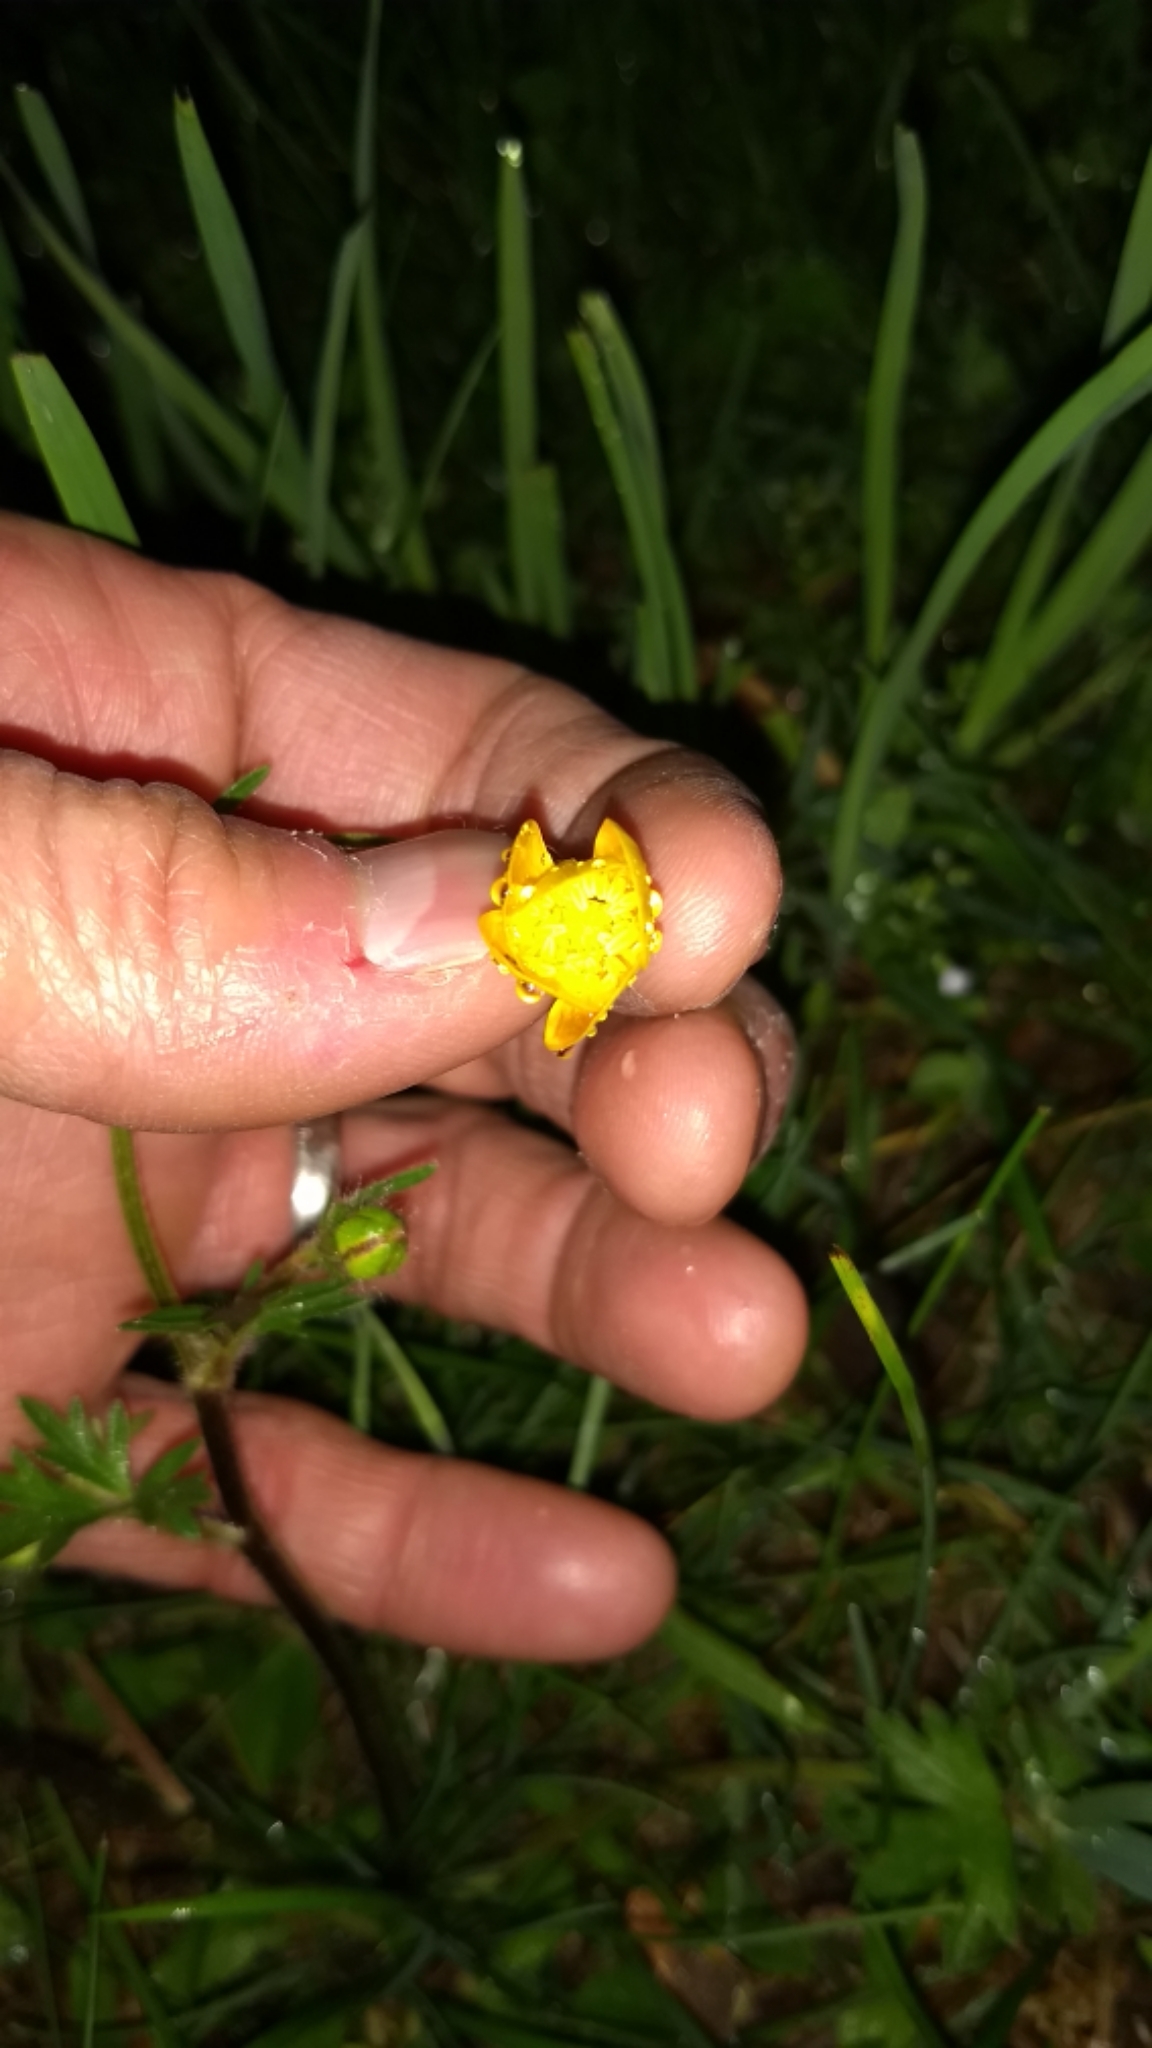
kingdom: Plantae
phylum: Tracheophyta
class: Magnoliopsida
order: Ranunculales
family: Ranunculaceae
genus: Ranunculus
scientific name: Ranunculus acris
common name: Meadow buttercup
